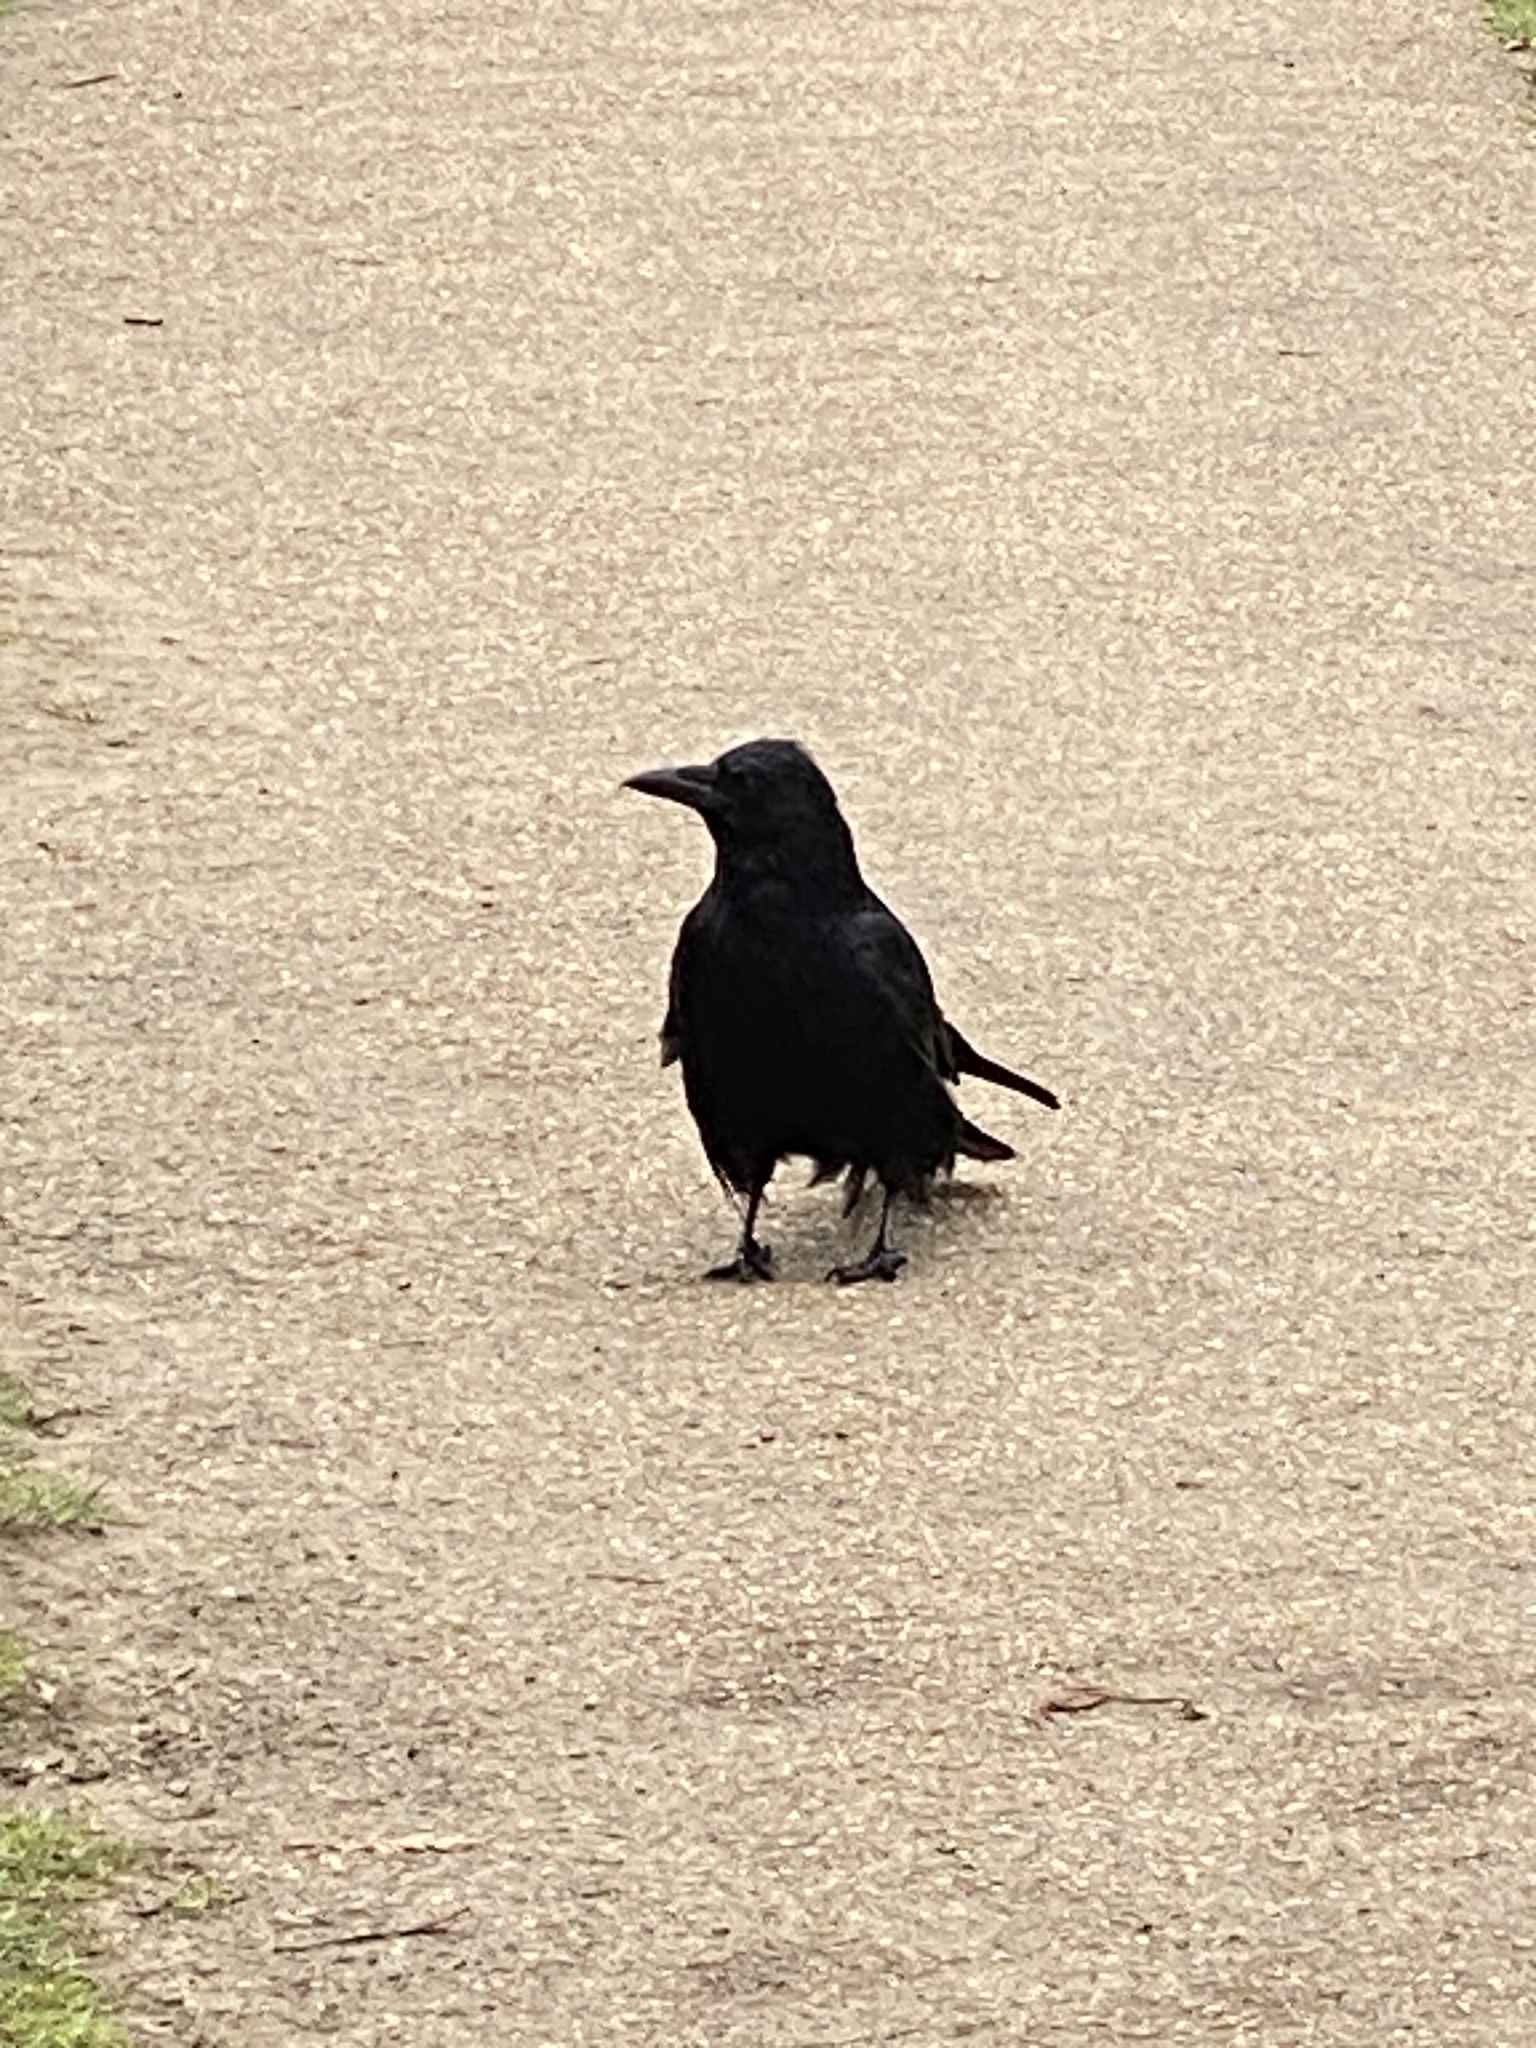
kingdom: Animalia
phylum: Chordata
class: Aves
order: Passeriformes
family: Corvidae
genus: Corvus
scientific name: Corvus corone
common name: Carrion crow
